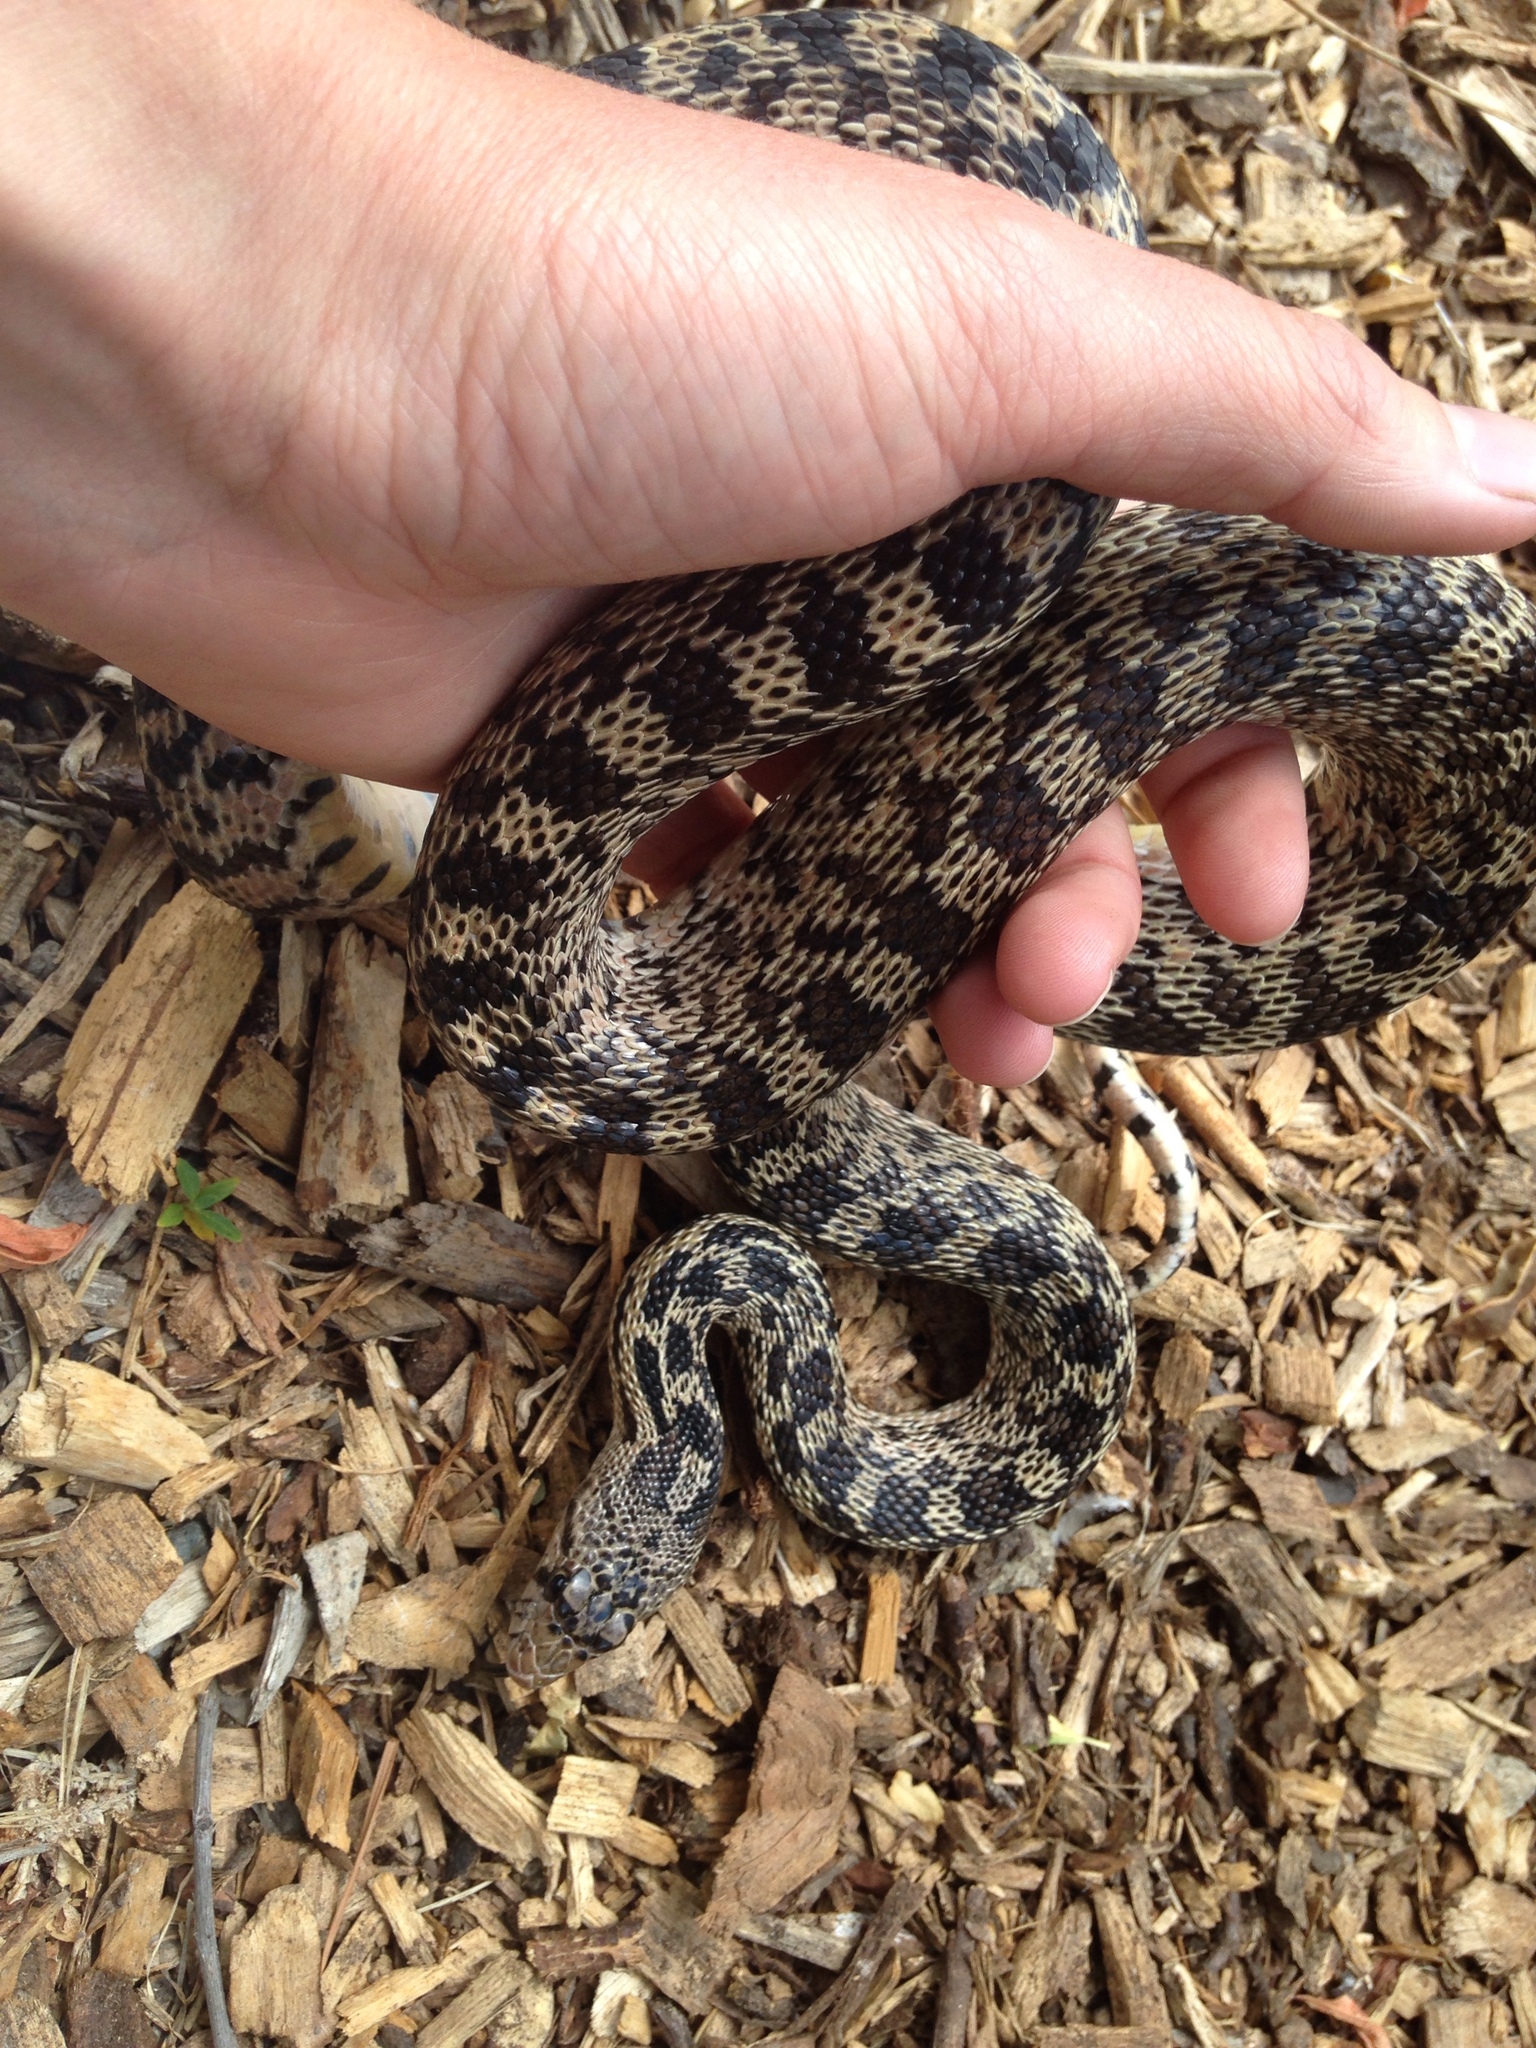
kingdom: Animalia
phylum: Chordata
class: Squamata
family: Colubridae
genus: Pituophis
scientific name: Pituophis catenifer
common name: Gopher snake
